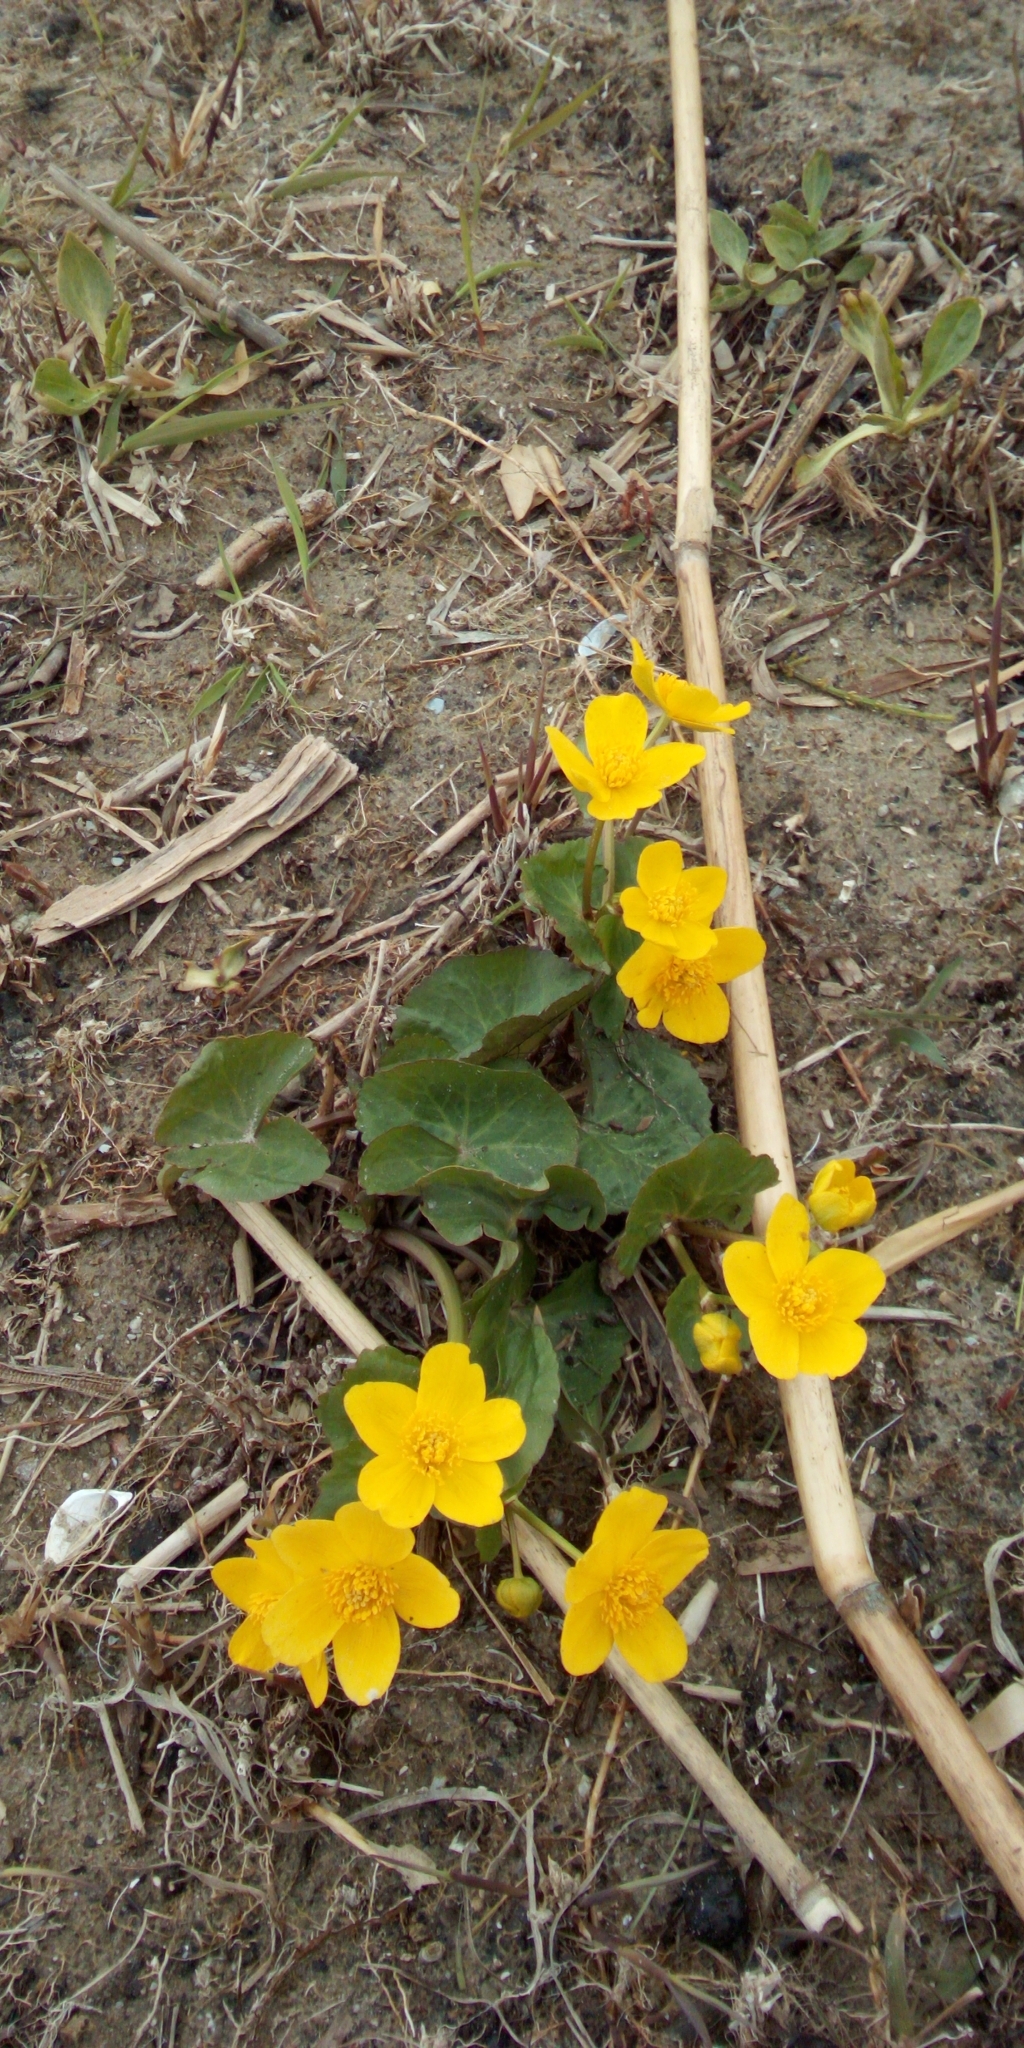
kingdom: Plantae
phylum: Tracheophyta
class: Magnoliopsida
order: Ranunculales
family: Ranunculaceae
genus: Caltha
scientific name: Caltha palustris
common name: Marsh marigold
